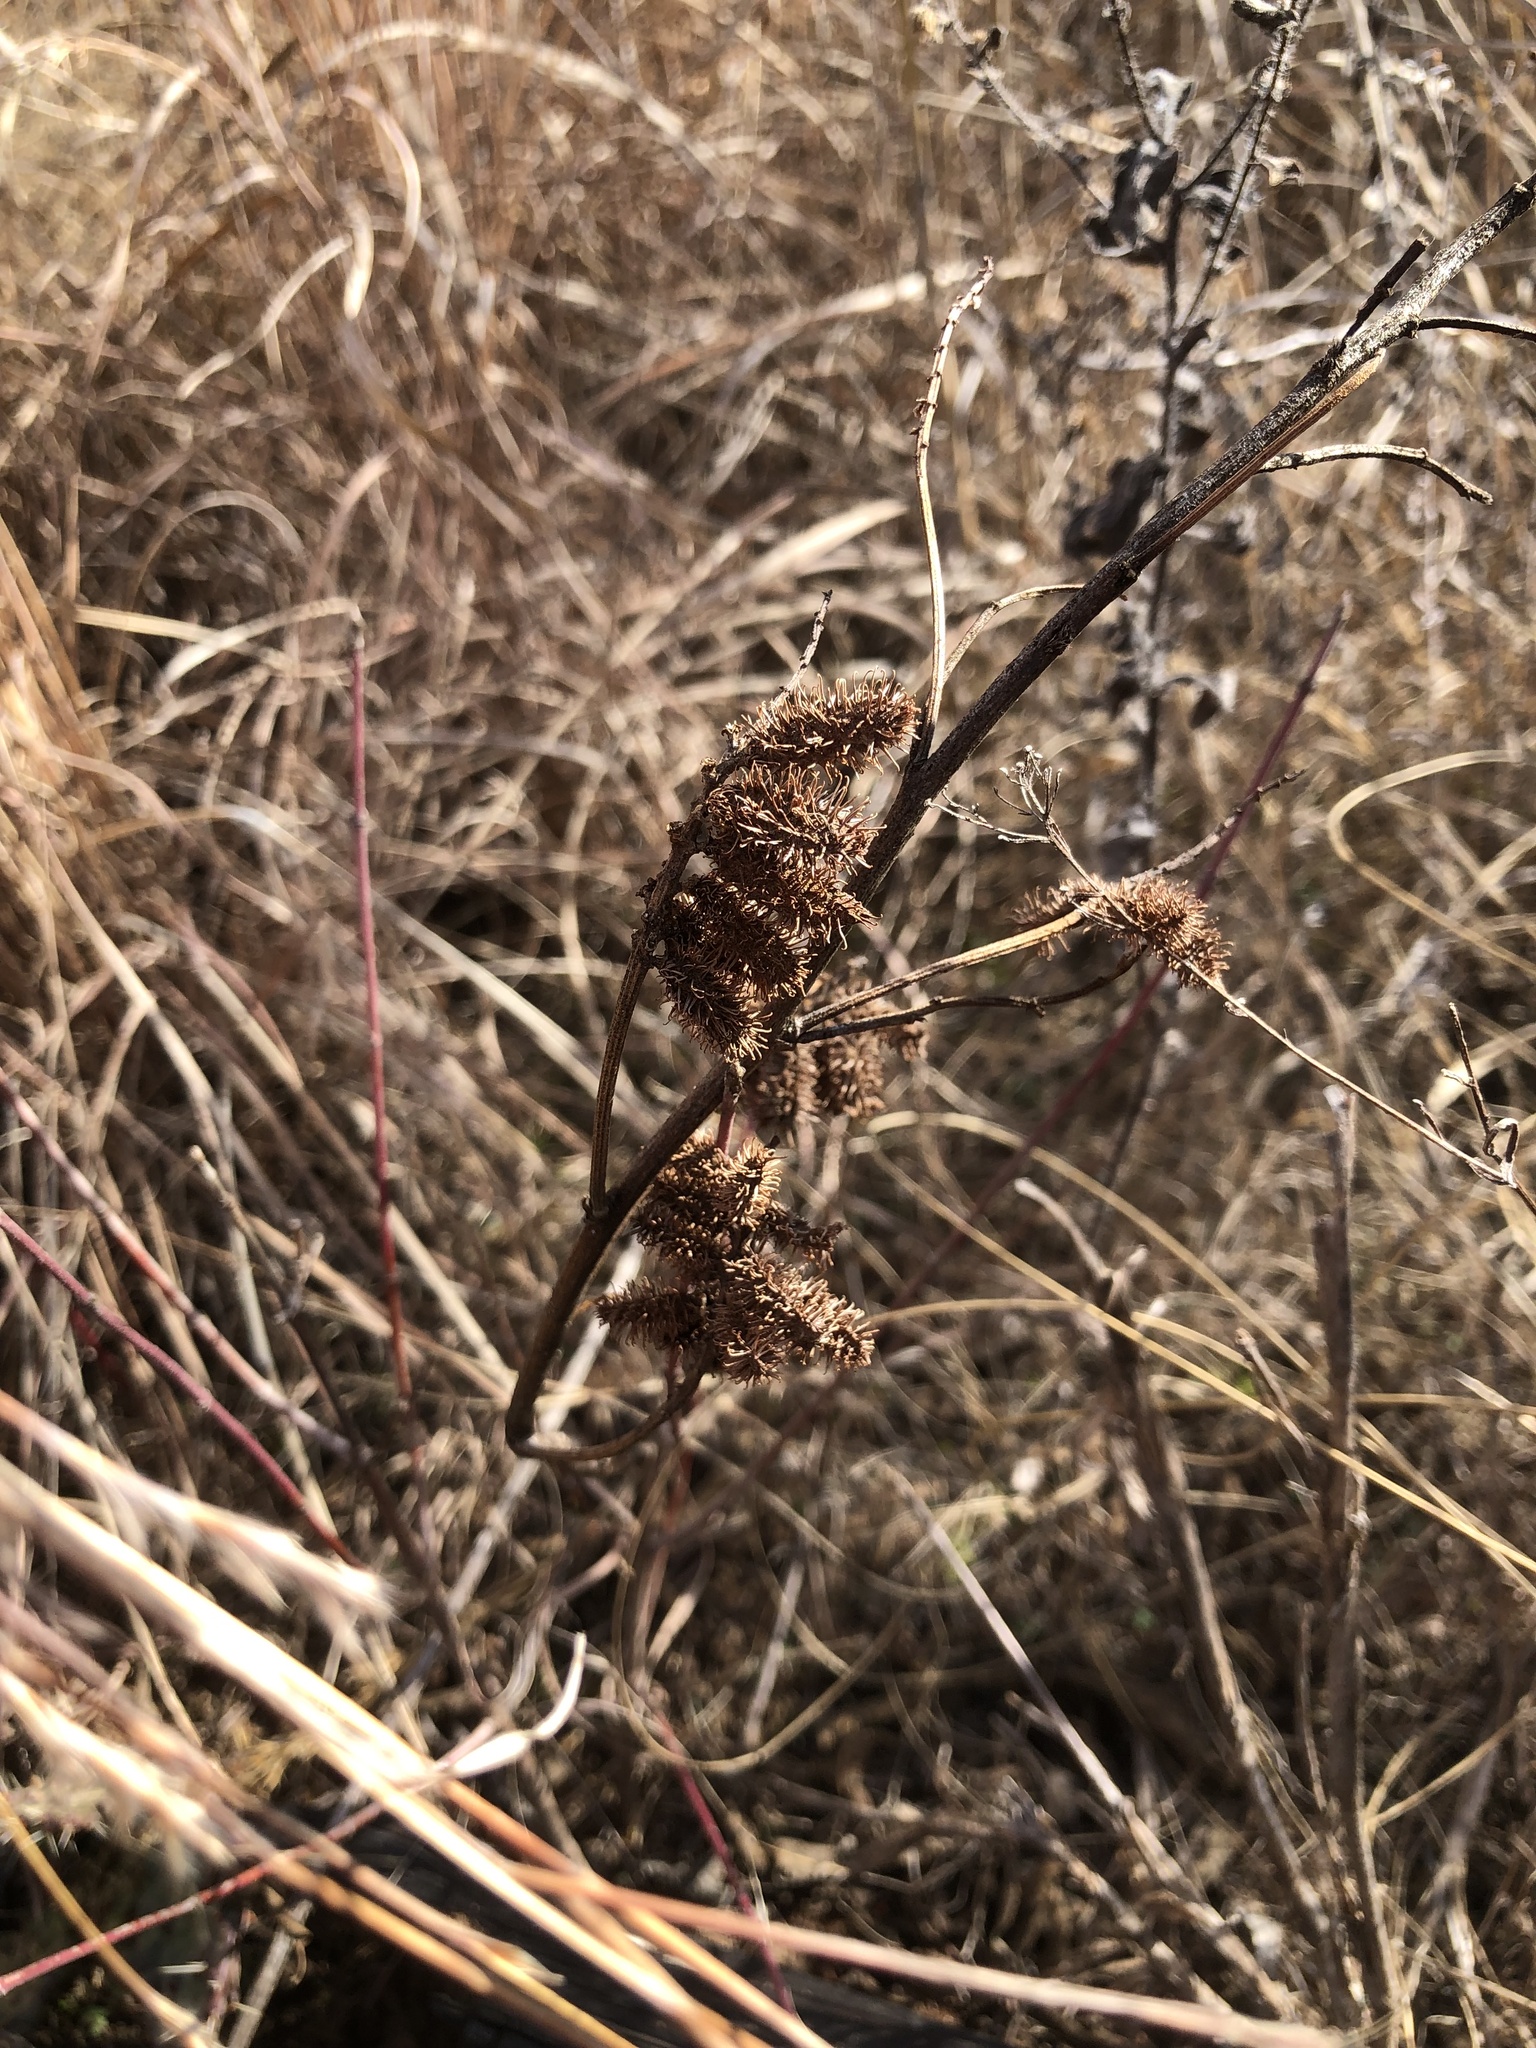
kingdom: Plantae
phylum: Tracheophyta
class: Magnoliopsida
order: Asterales
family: Asteraceae
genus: Xanthium
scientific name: Xanthium strumarium
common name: Rough cocklebur
